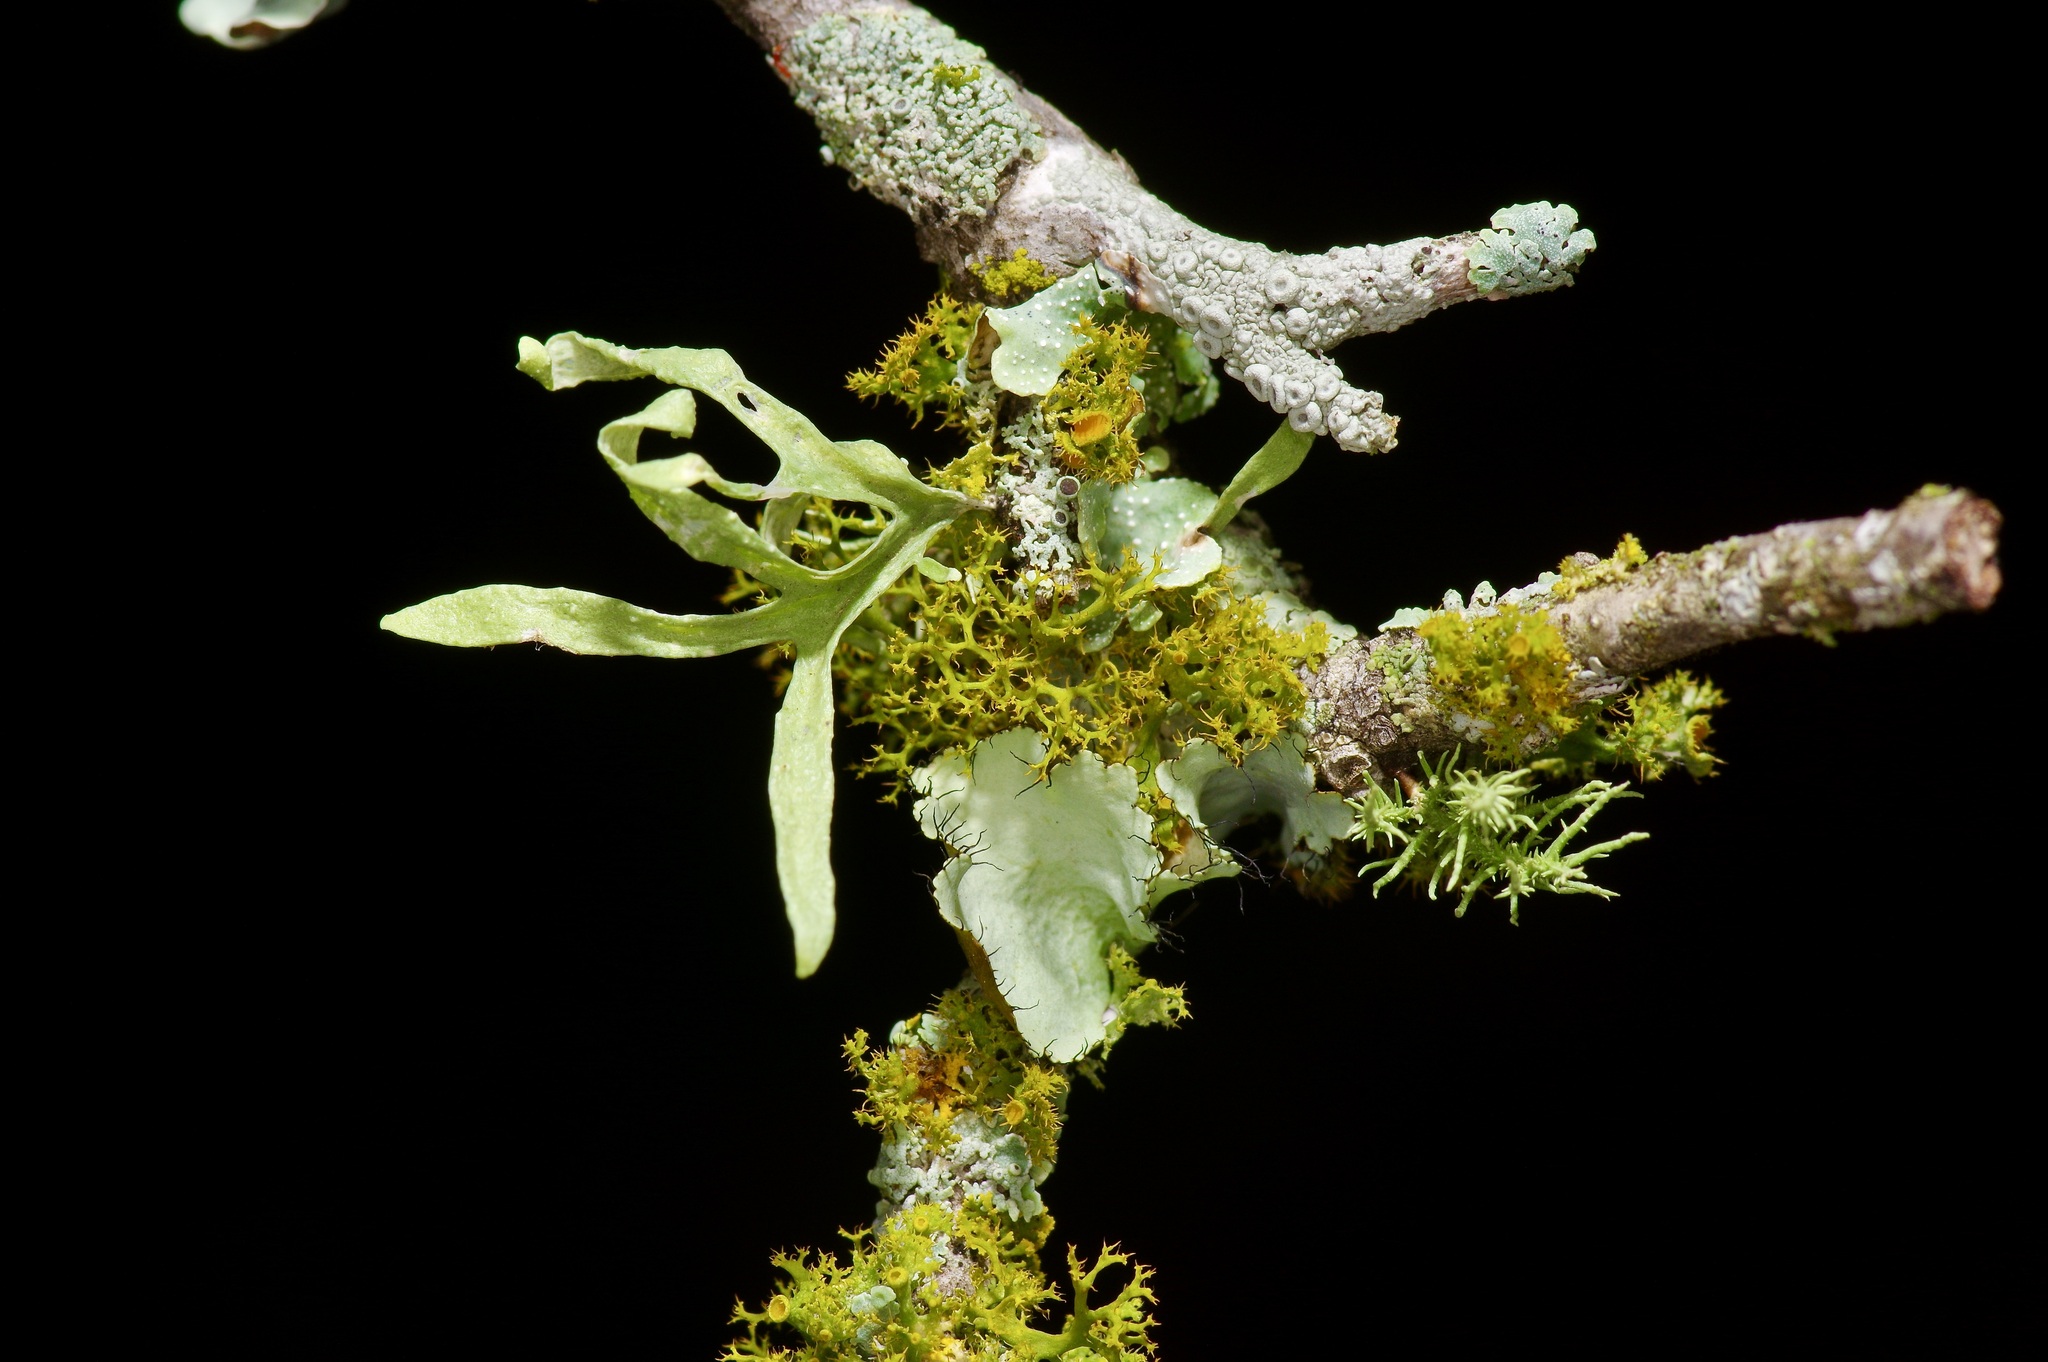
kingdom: Fungi
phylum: Ascomycota
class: Lecanoromycetes
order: Teloschistales
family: Teloschistaceae
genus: Niorma
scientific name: Niorma chrysophthalma
